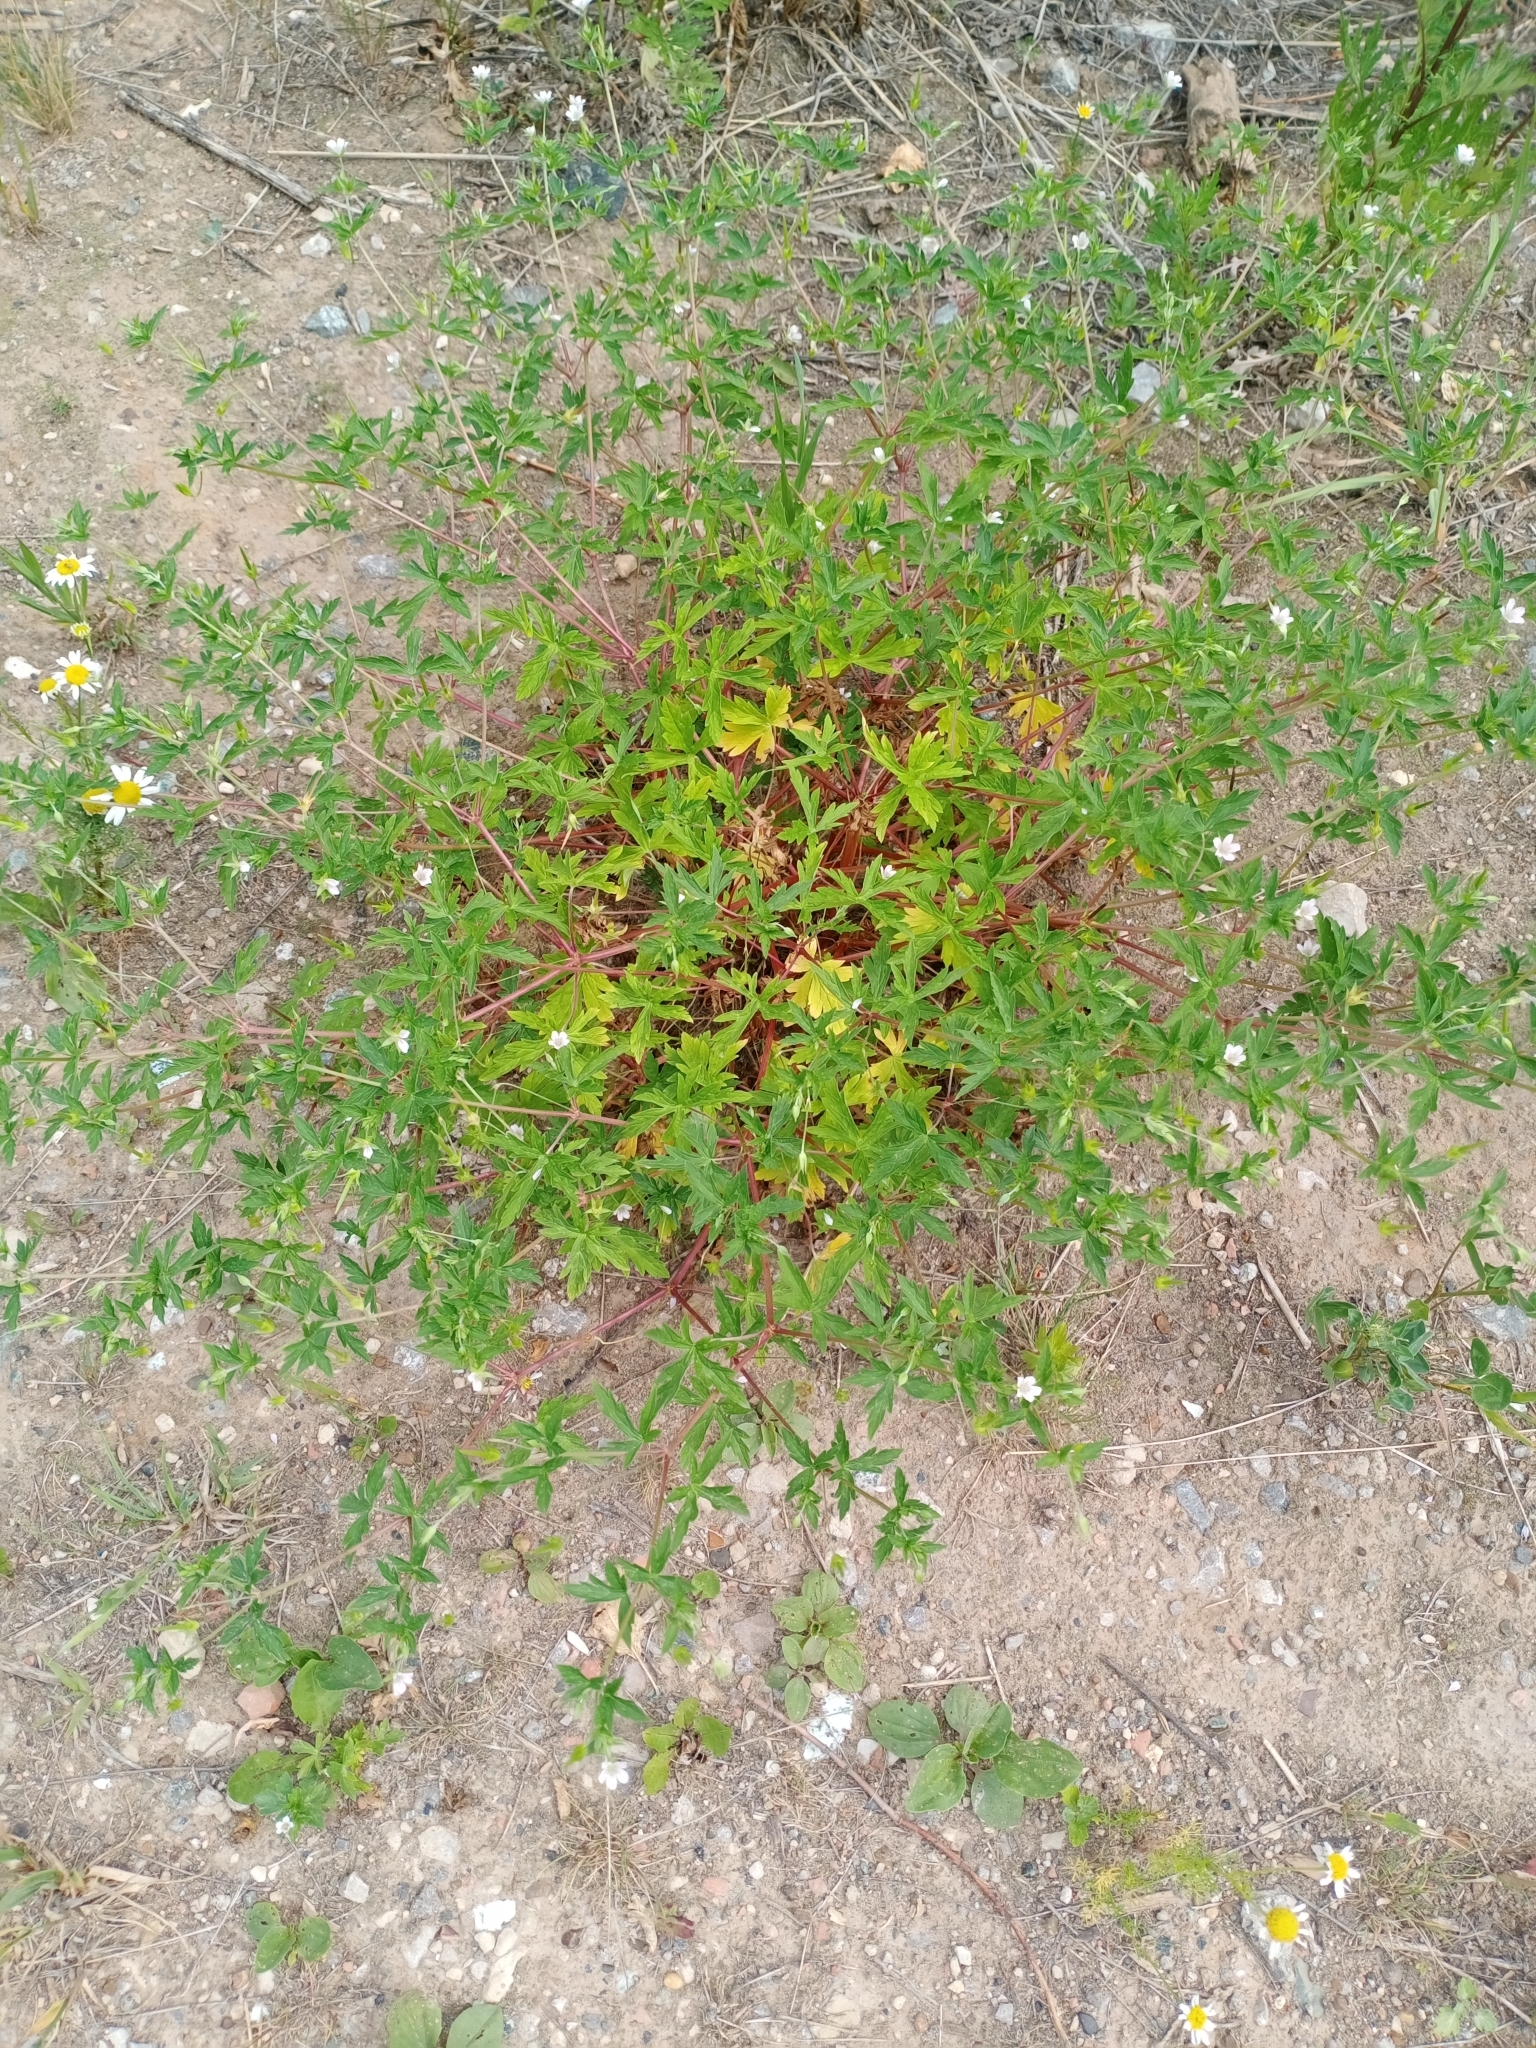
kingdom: Plantae
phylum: Tracheophyta
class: Magnoliopsida
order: Geraniales
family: Geraniaceae
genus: Geranium
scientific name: Geranium sibiricum
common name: Siberian crane's-bill
